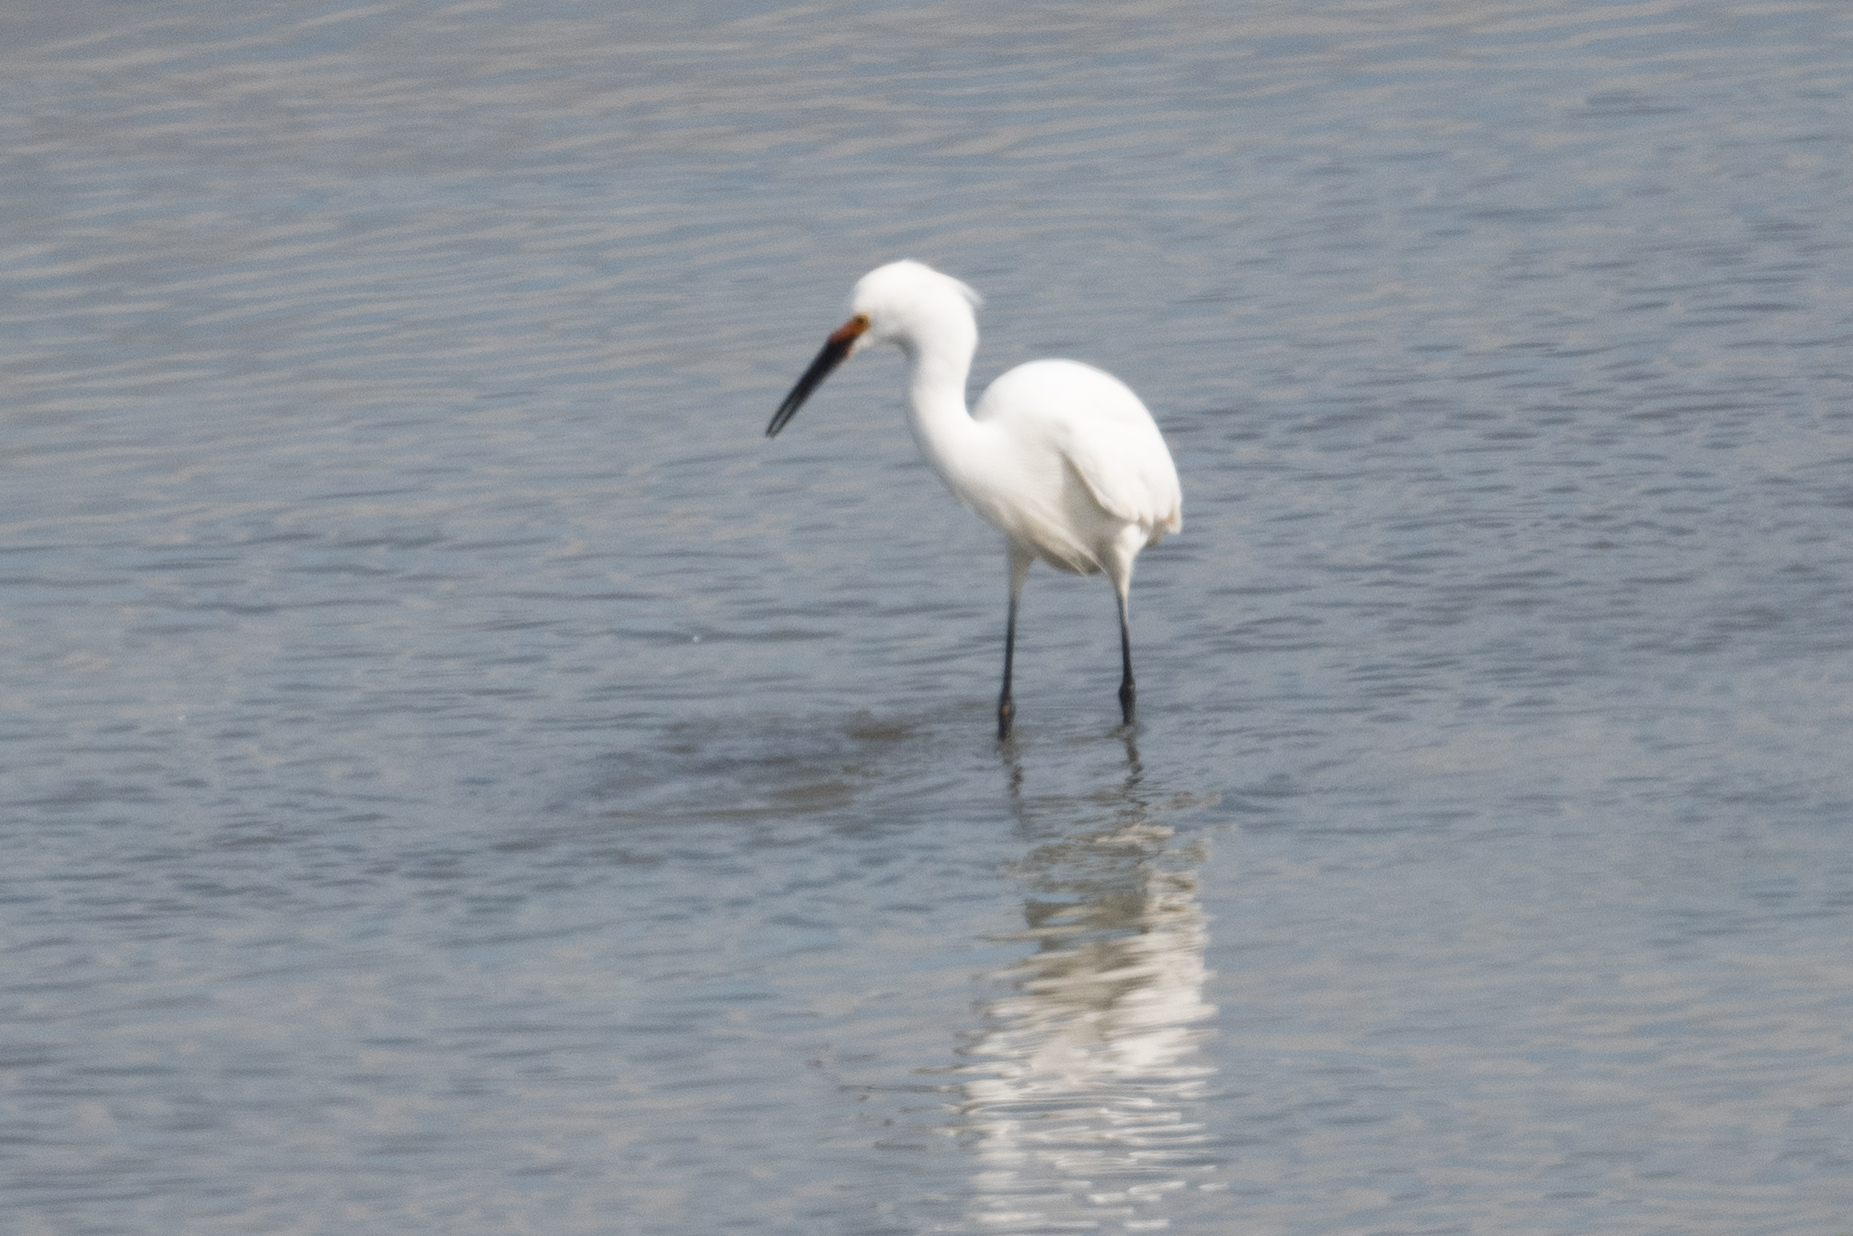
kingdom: Animalia
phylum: Chordata
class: Aves
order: Pelecaniformes
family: Ardeidae
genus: Egretta
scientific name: Egretta thula
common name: Snowy egret
